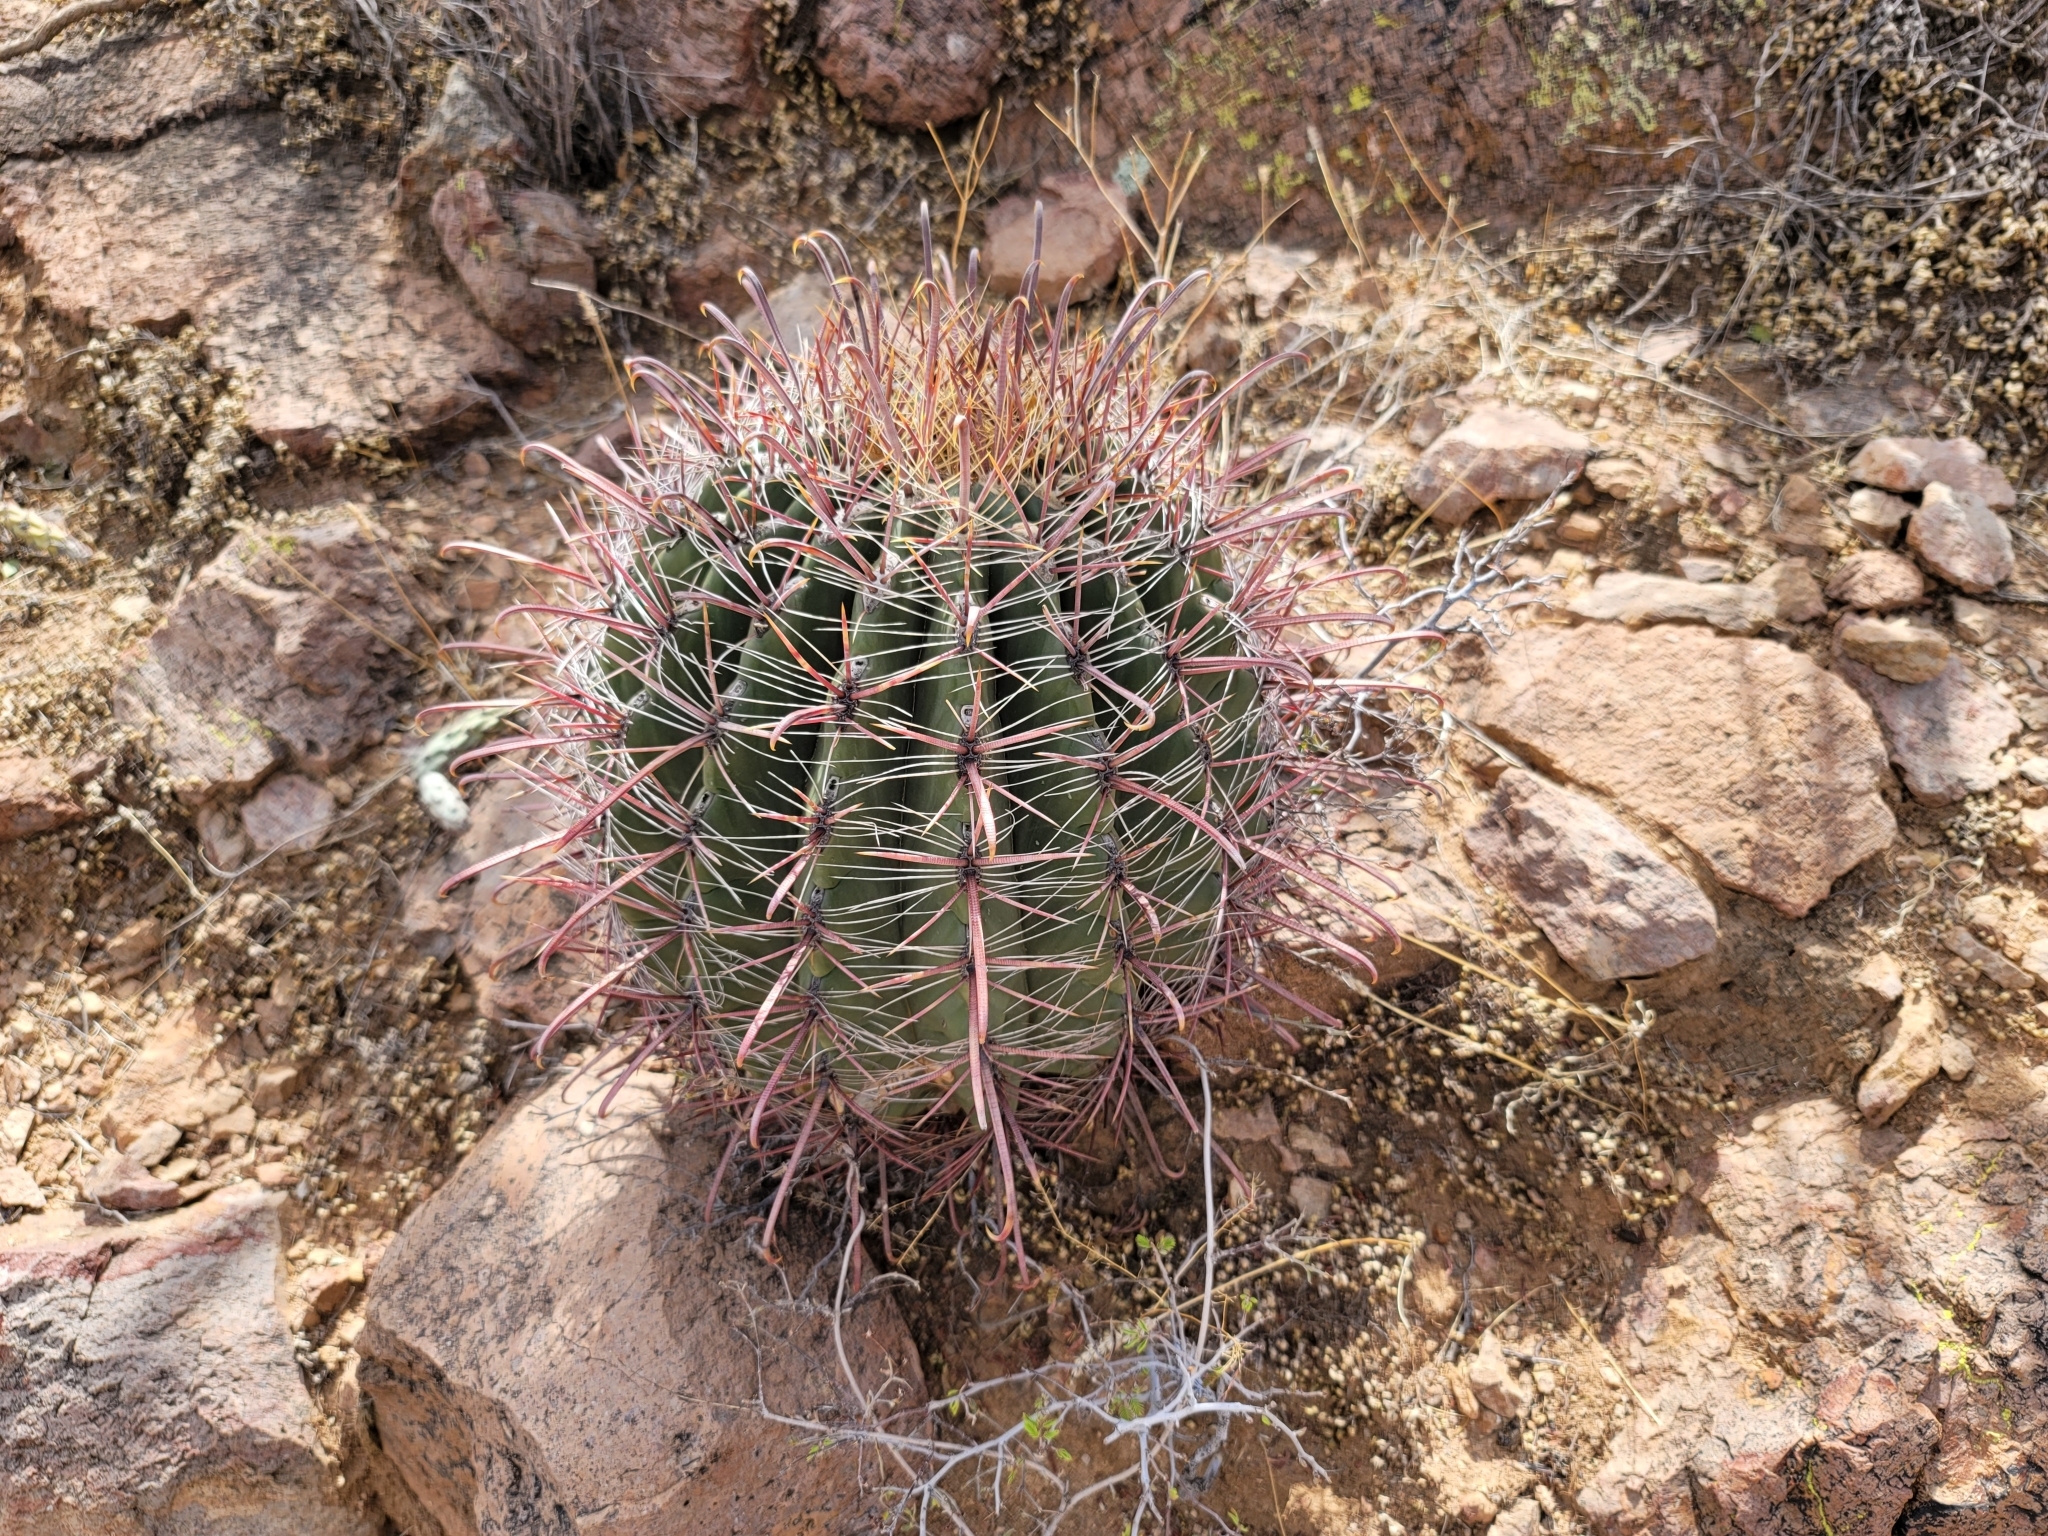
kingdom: Plantae
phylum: Tracheophyta
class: Magnoliopsida
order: Caryophyllales
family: Cactaceae
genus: Ferocactus
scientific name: Ferocactus wislizeni
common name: Candy barrel cactus
